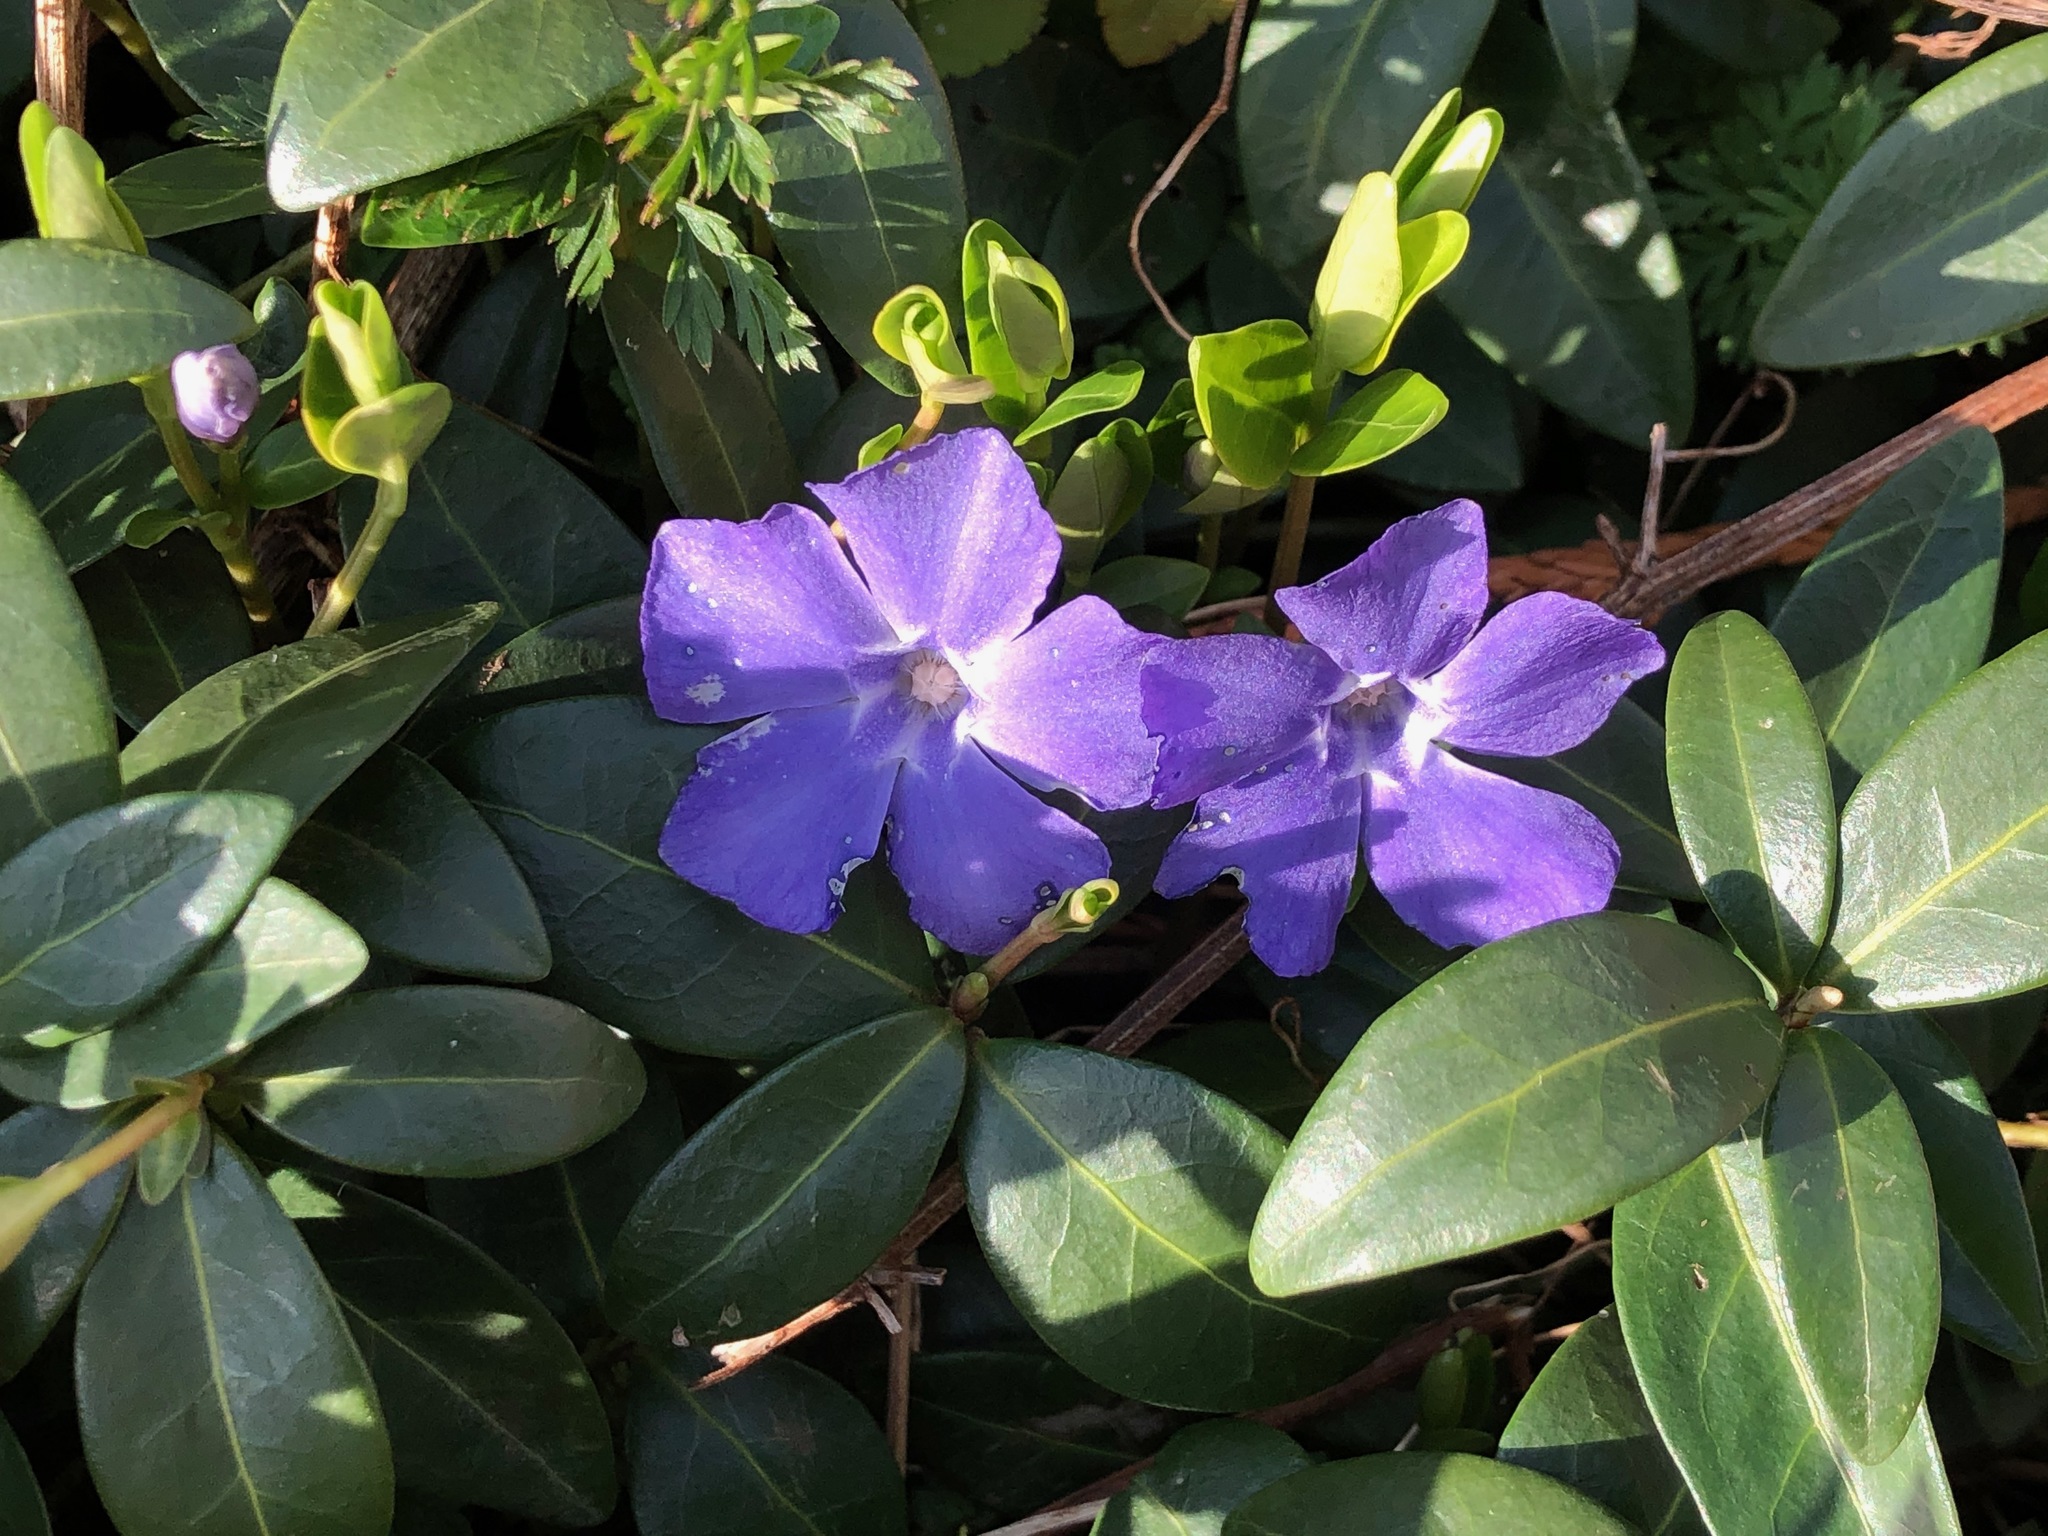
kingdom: Plantae
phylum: Tracheophyta
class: Magnoliopsida
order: Gentianales
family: Apocynaceae
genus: Vinca
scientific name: Vinca minor
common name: Lesser periwinkle
